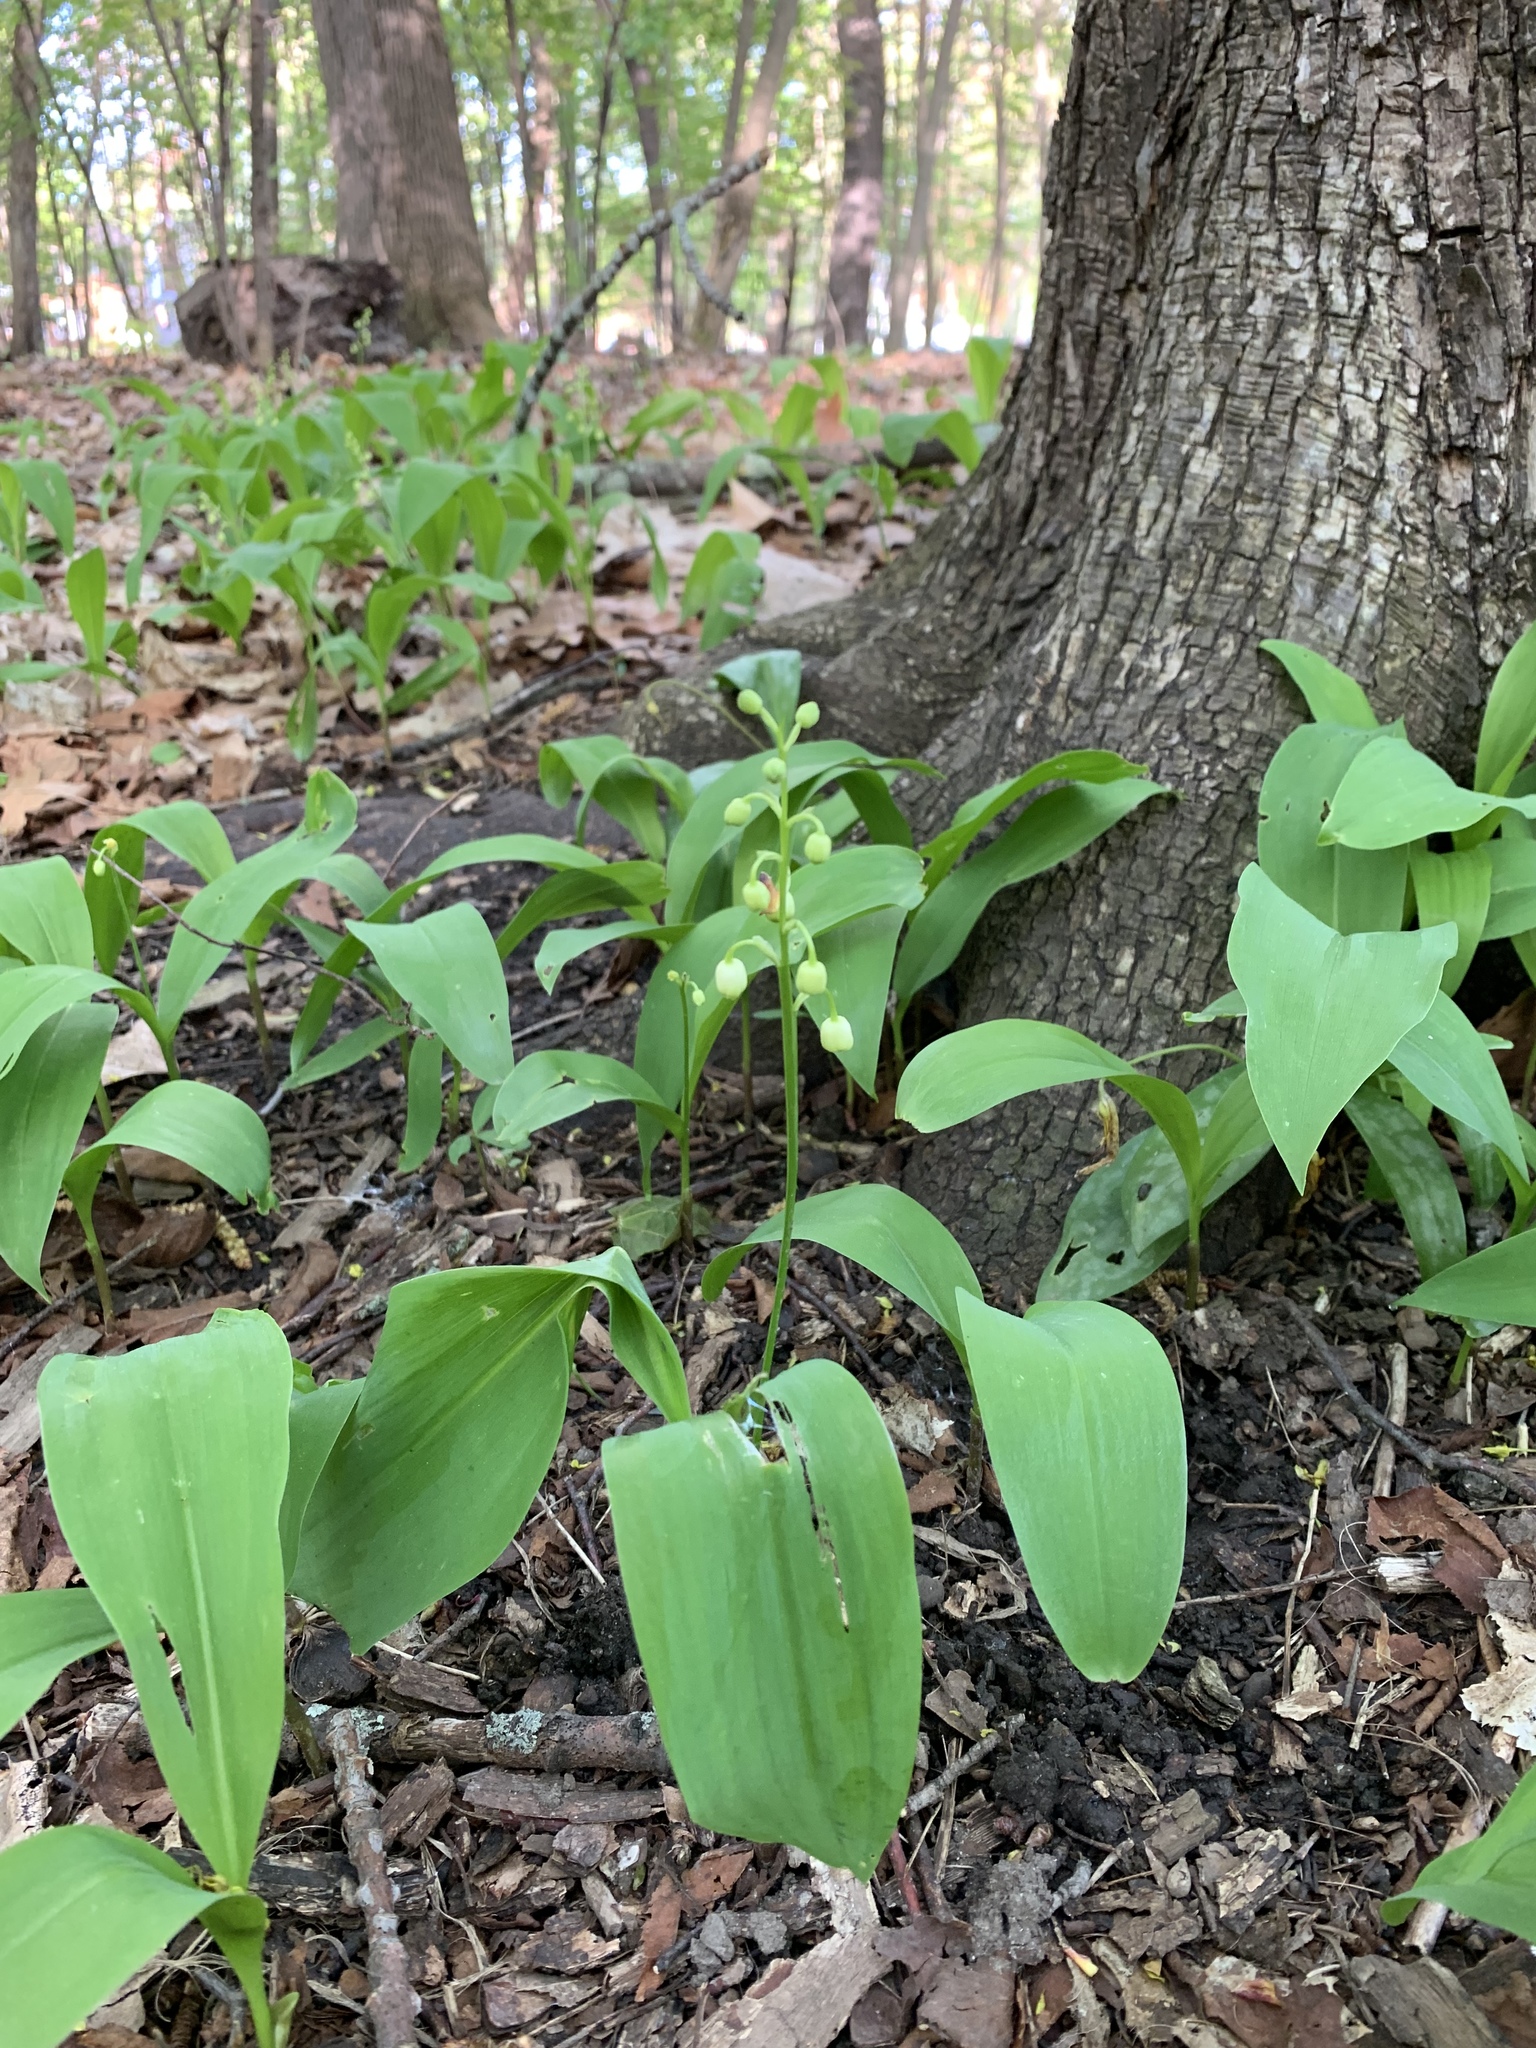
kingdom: Plantae
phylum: Tracheophyta
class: Liliopsida
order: Asparagales
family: Asparagaceae
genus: Convallaria
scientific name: Convallaria majalis
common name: Lily-of-the-valley
